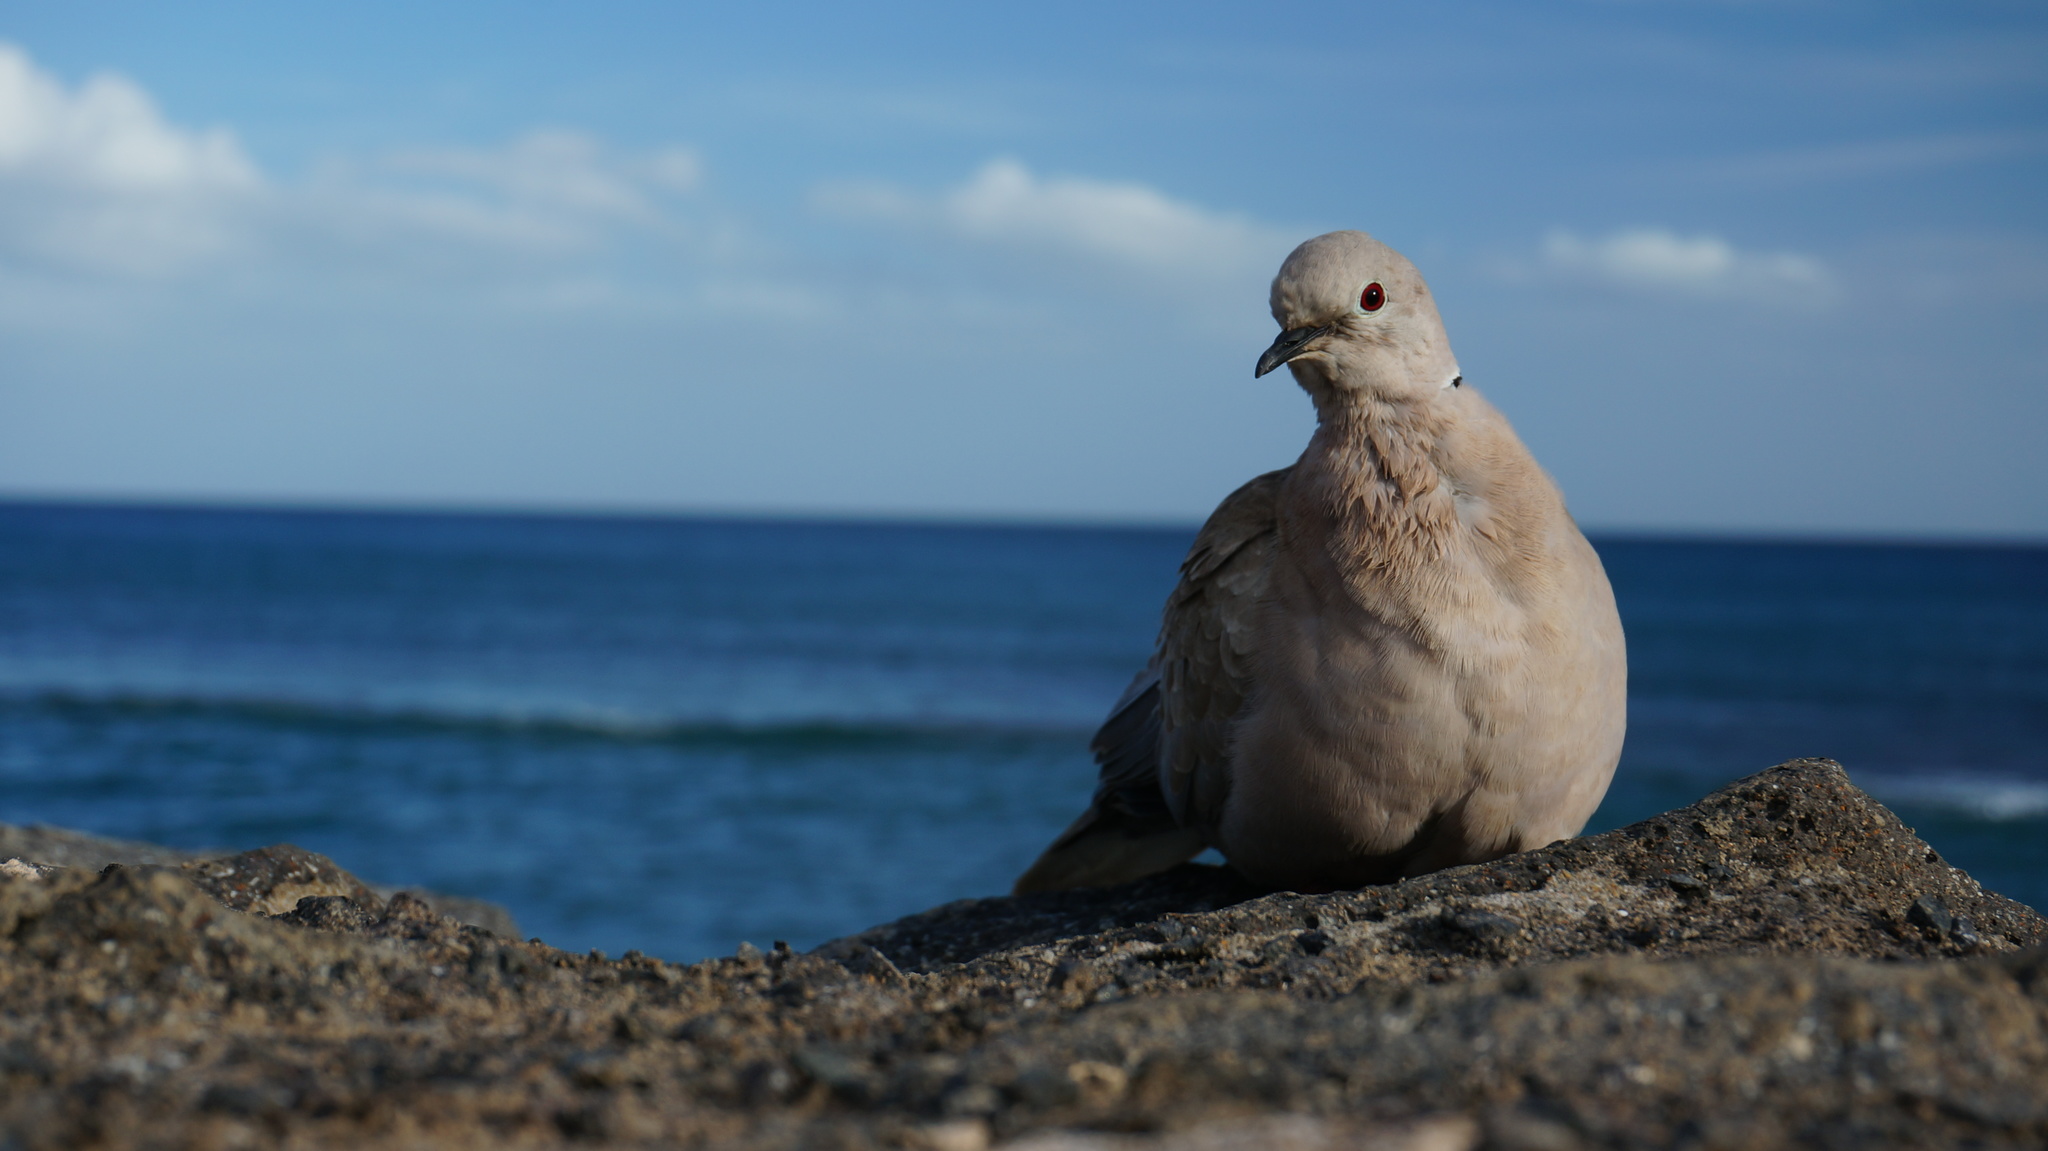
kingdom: Animalia
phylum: Chordata
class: Aves
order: Columbiformes
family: Columbidae
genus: Streptopelia
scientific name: Streptopelia decaocto
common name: Eurasian collared dove
